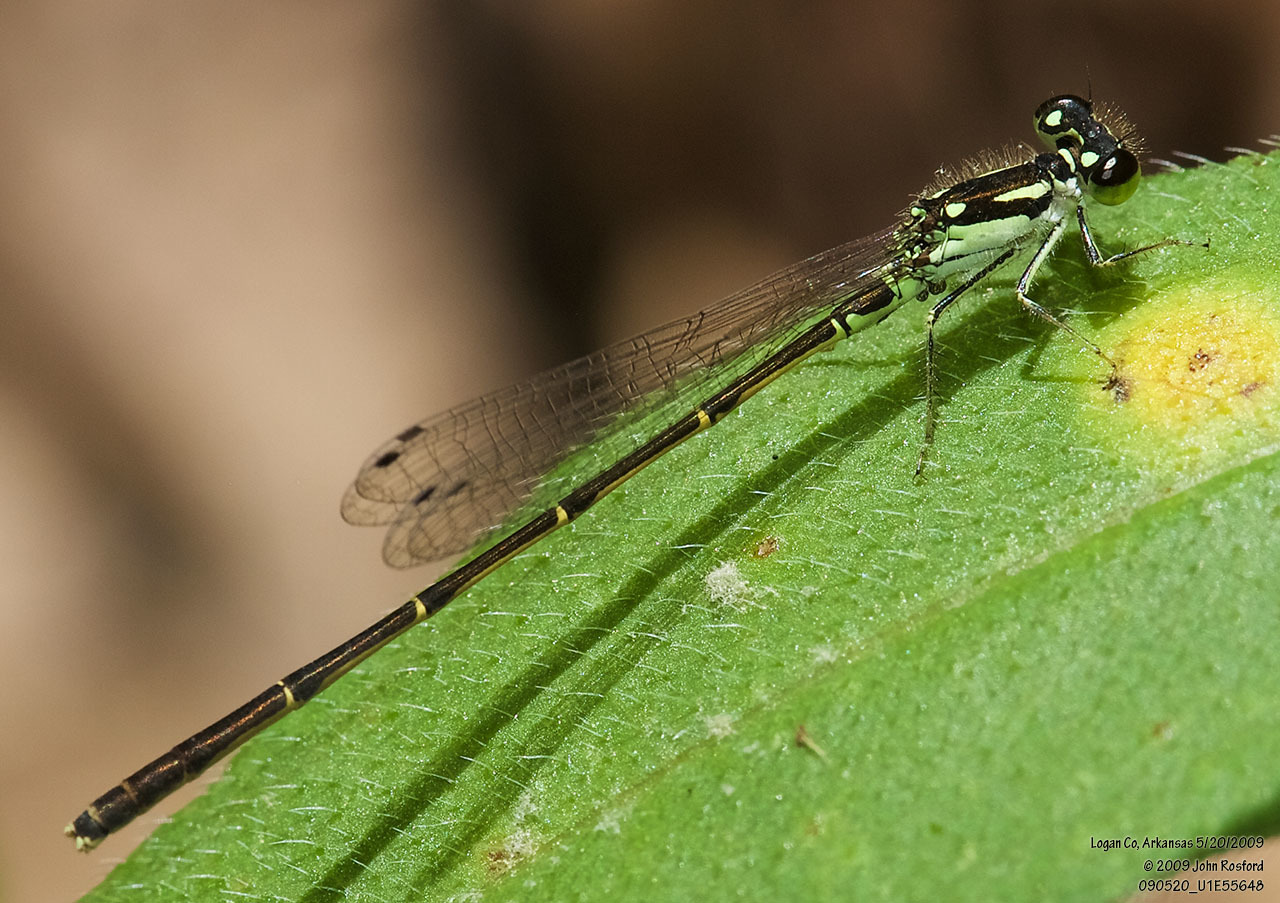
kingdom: Animalia
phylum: Arthropoda
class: Insecta
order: Odonata
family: Coenagrionidae
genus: Ischnura
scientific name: Ischnura posita
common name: Fragile forktail
